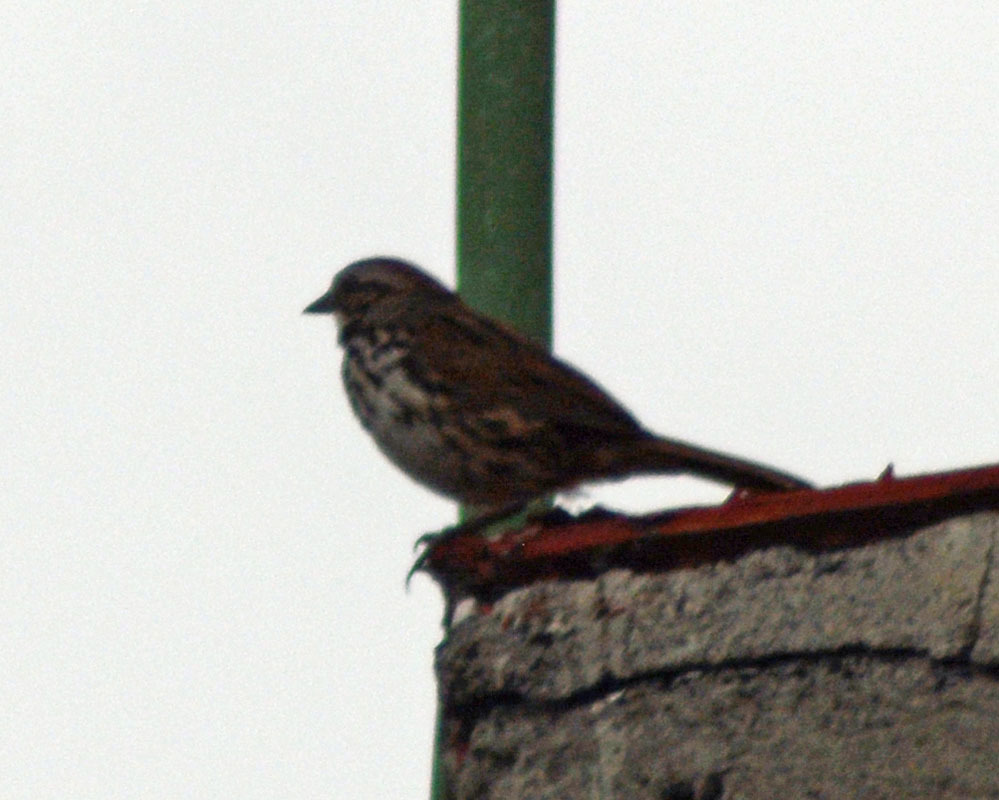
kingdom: Animalia
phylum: Chordata
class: Aves
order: Passeriformes
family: Passerellidae
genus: Melospiza
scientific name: Melospiza melodia
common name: Song sparrow
